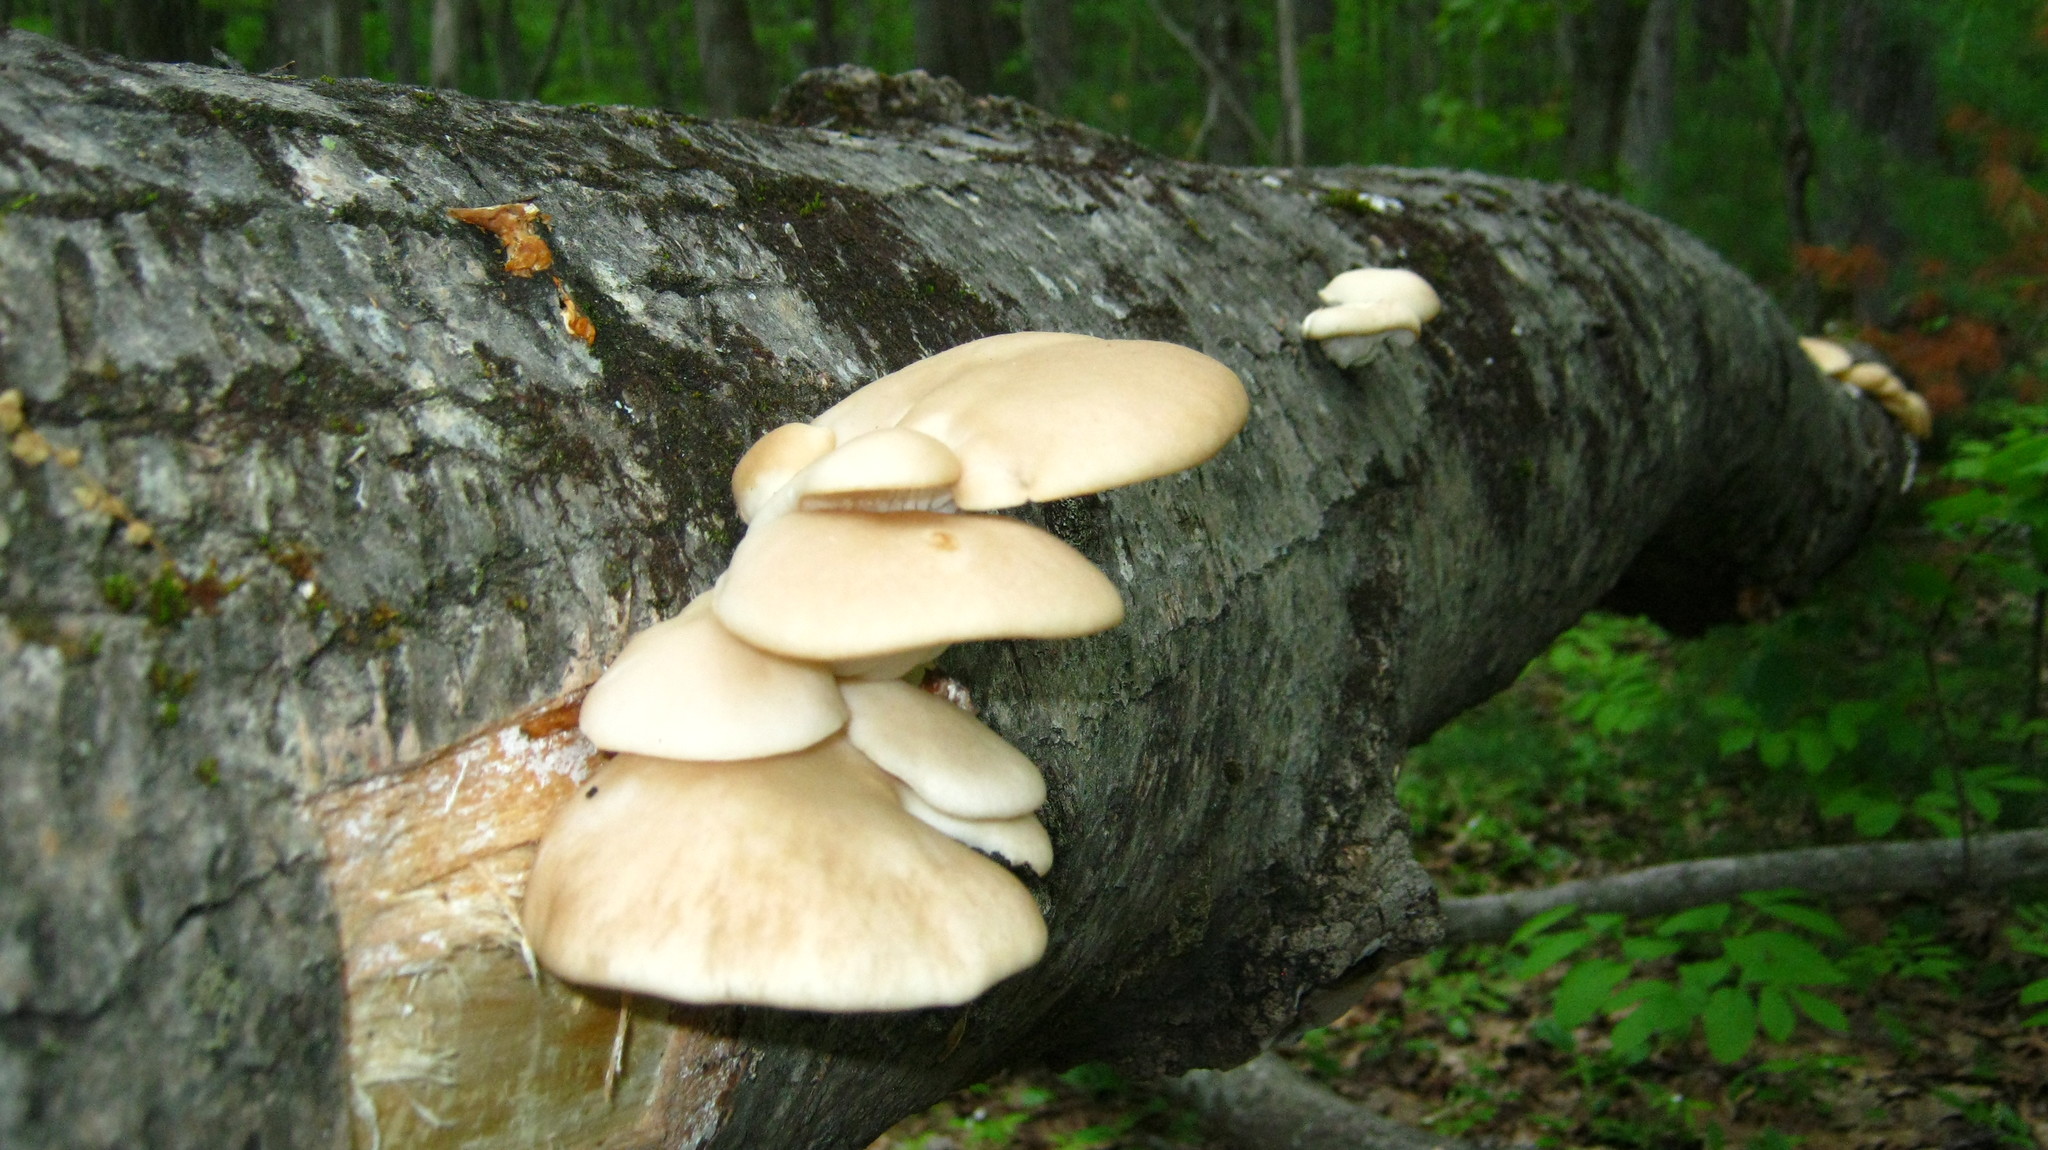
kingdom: Fungi
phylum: Basidiomycota
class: Agaricomycetes
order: Agaricales
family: Pleurotaceae
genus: Pleurotus
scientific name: Pleurotus populinus
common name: Aspen oyster mushroom
